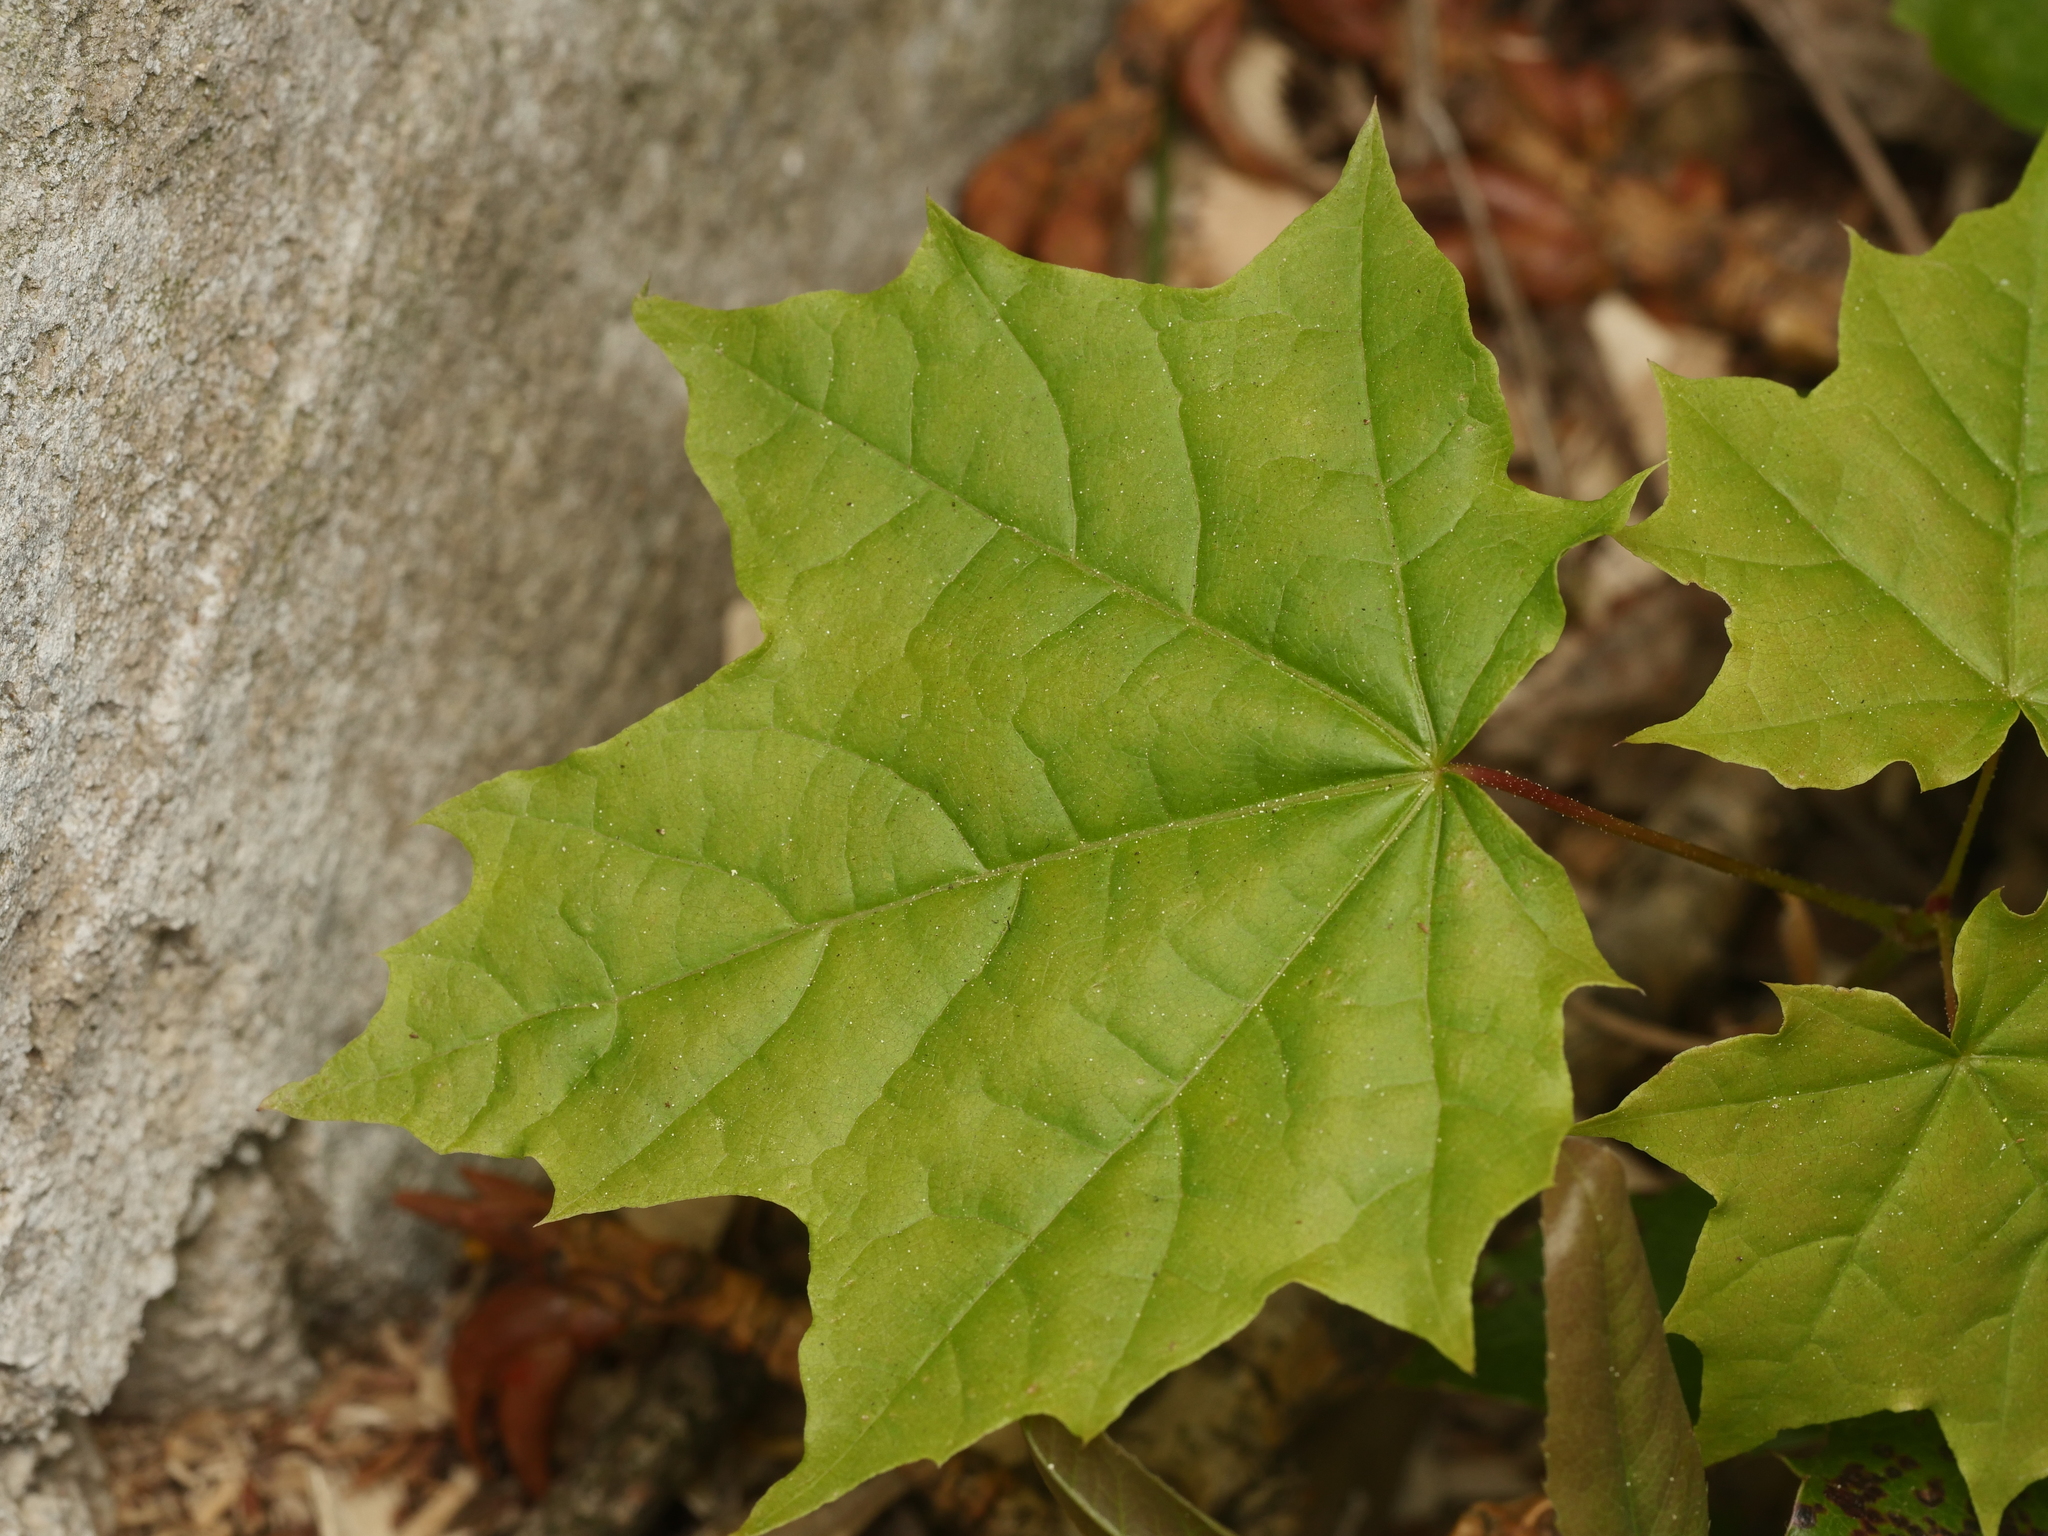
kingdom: Plantae
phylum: Tracheophyta
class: Magnoliopsida
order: Sapindales
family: Sapindaceae
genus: Acer
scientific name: Acer platanoides
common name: Norway maple
